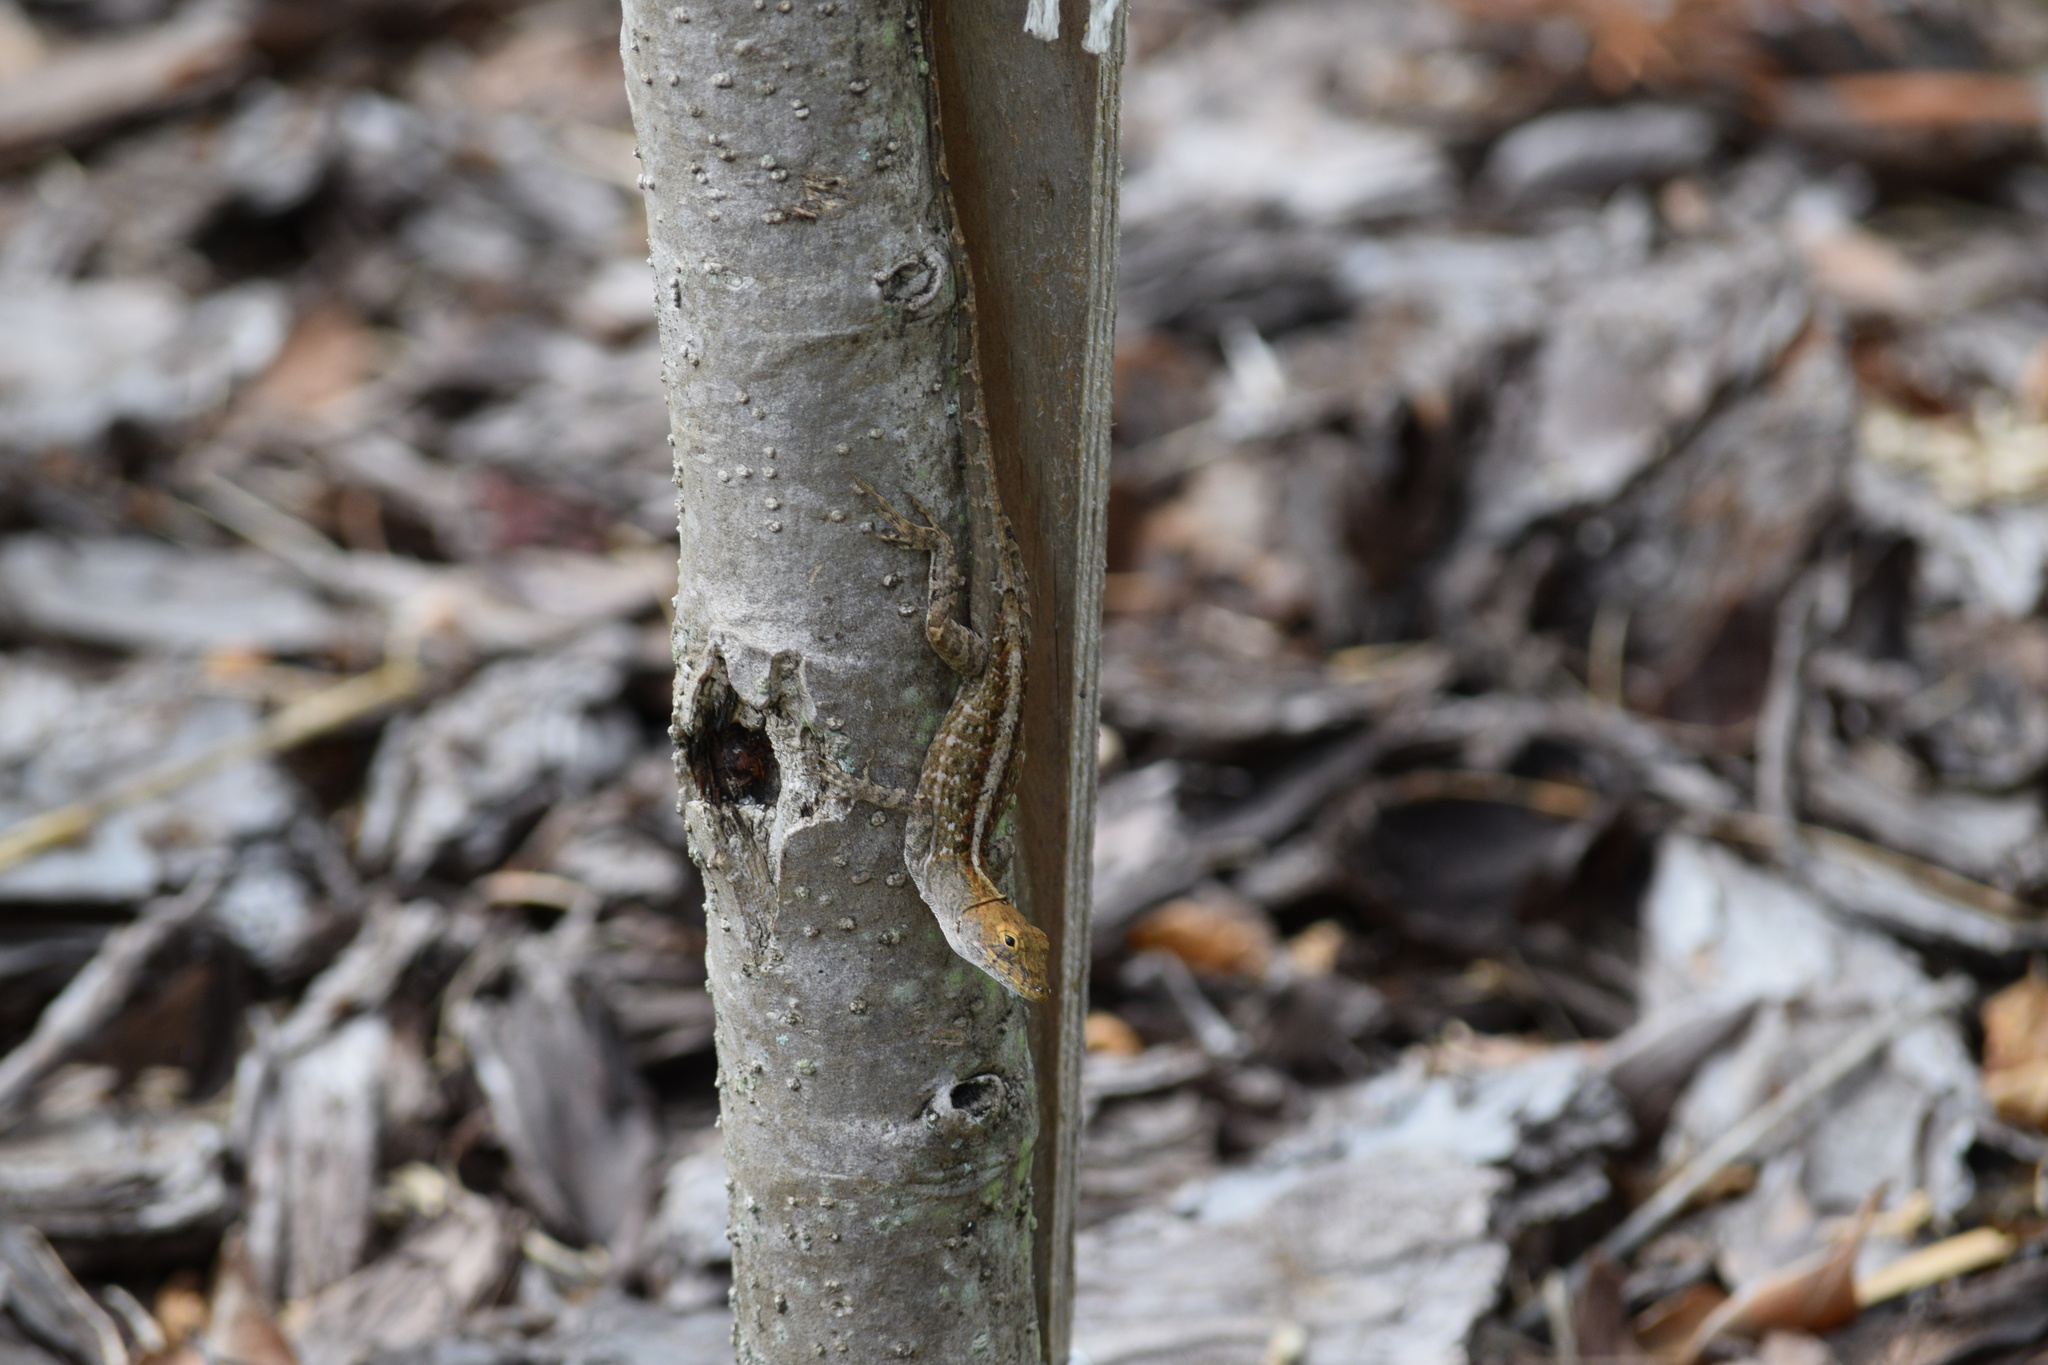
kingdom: Animalia
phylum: Chordata
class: Squamata
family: Dactyloidae
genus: Anolis
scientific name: Anolis sagrei
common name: Brown anole
